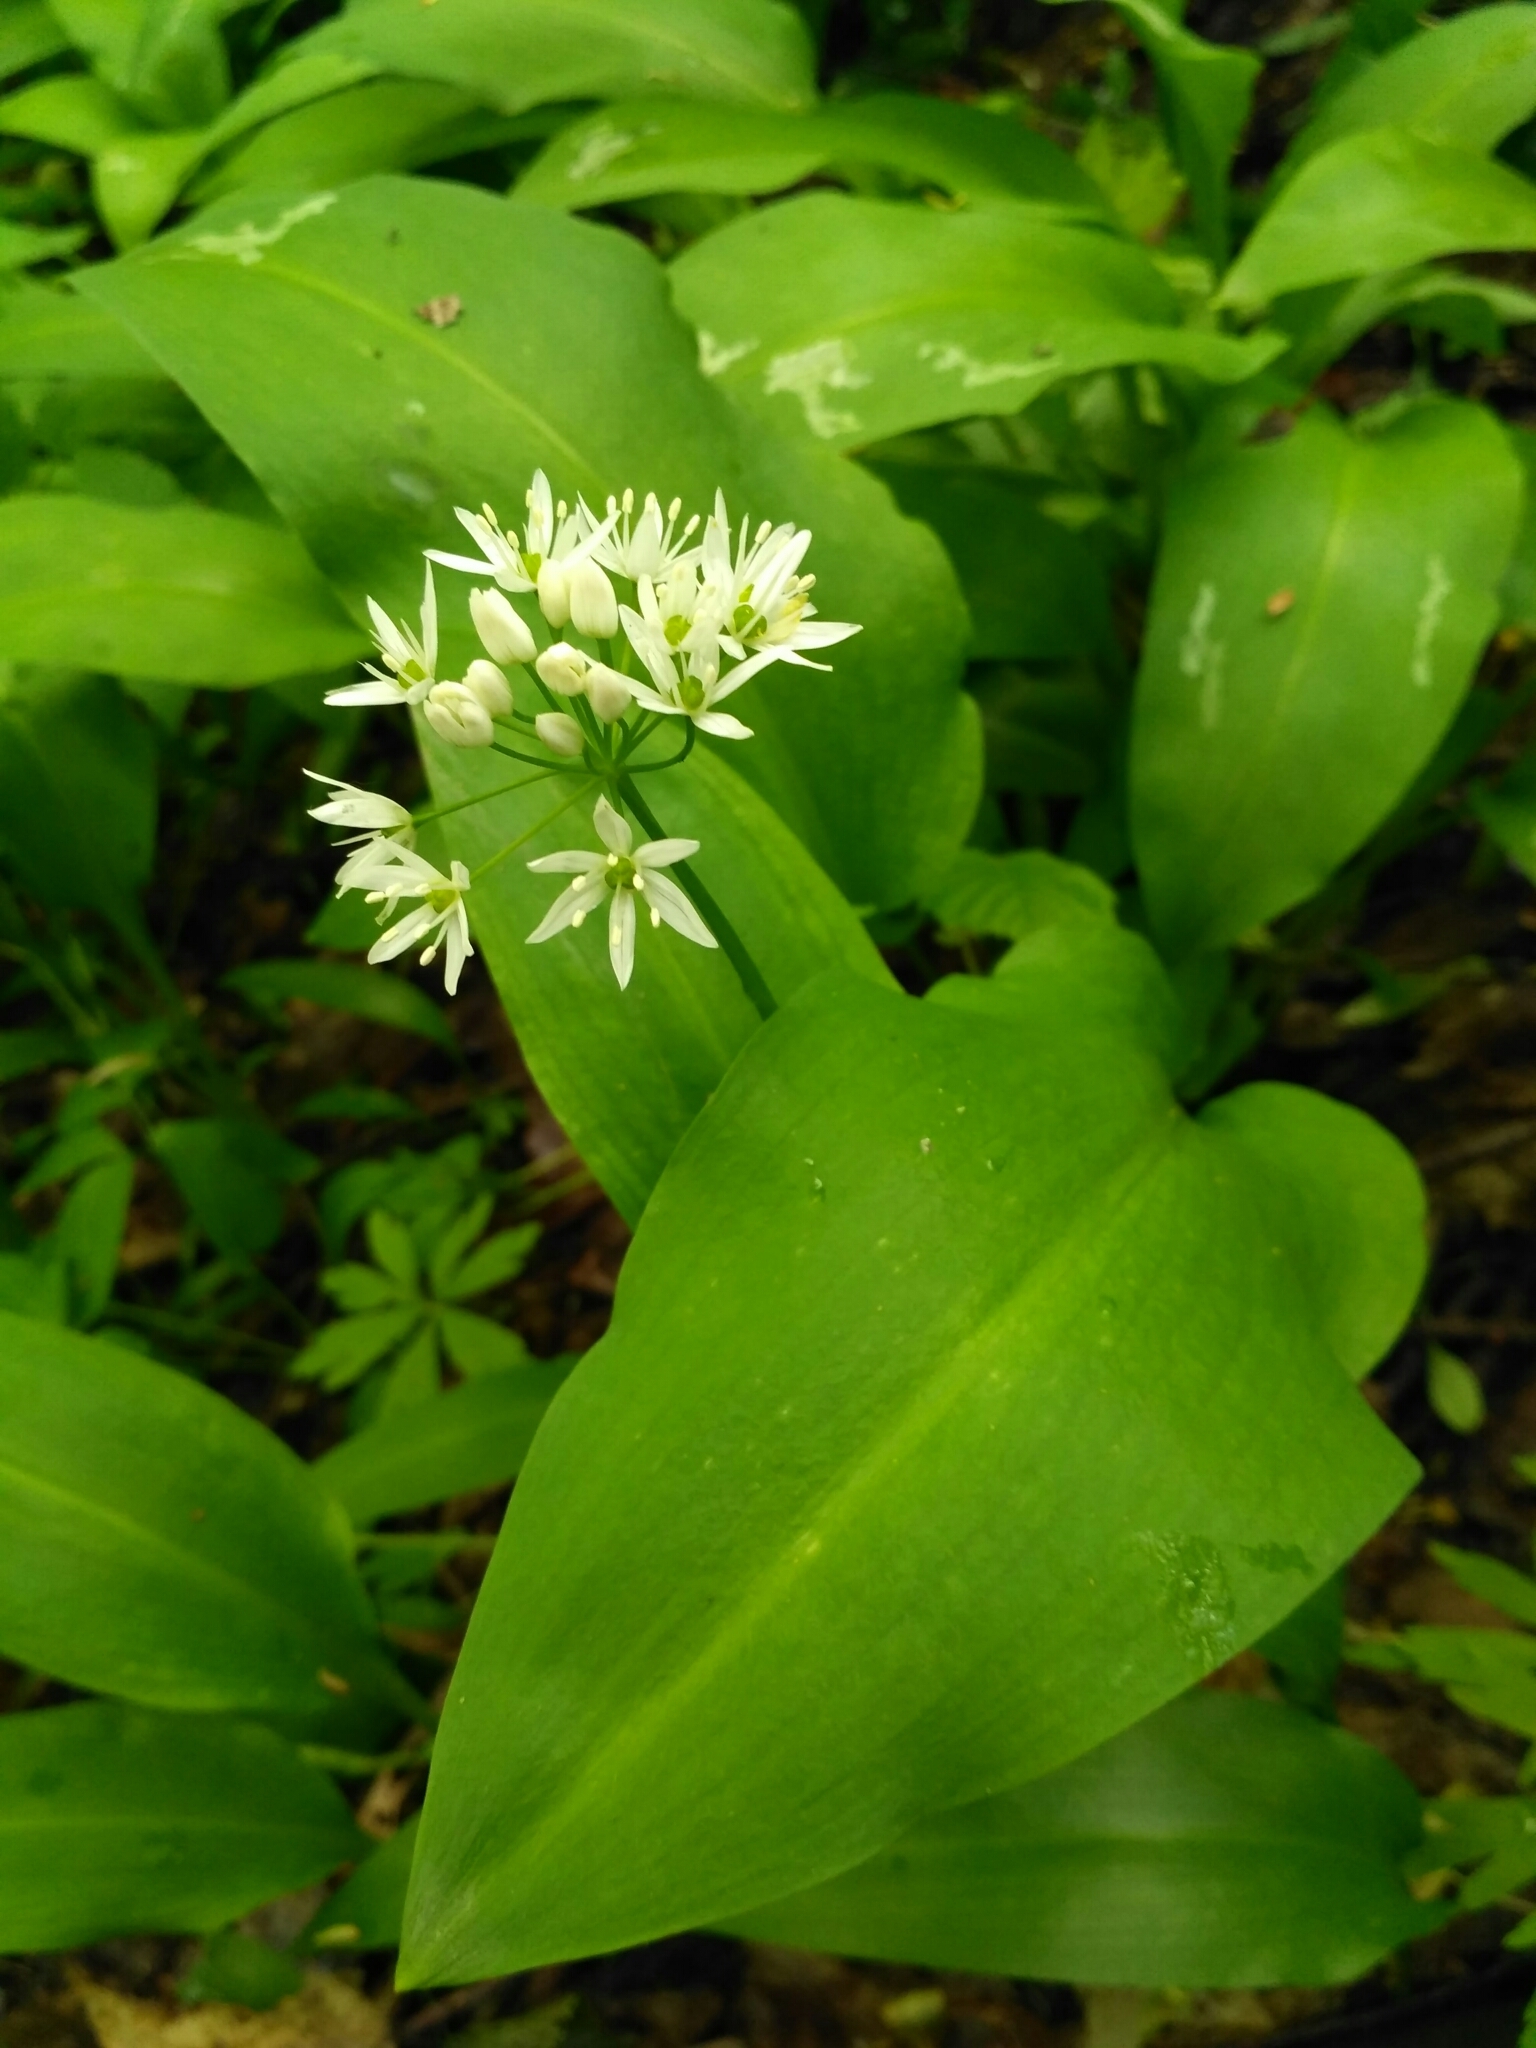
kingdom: Plantae
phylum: Tracheophyta
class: Liliopsida
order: Asparagales
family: Amaryllidaceae
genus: Allium
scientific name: Allium ursinum
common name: Ramsons
